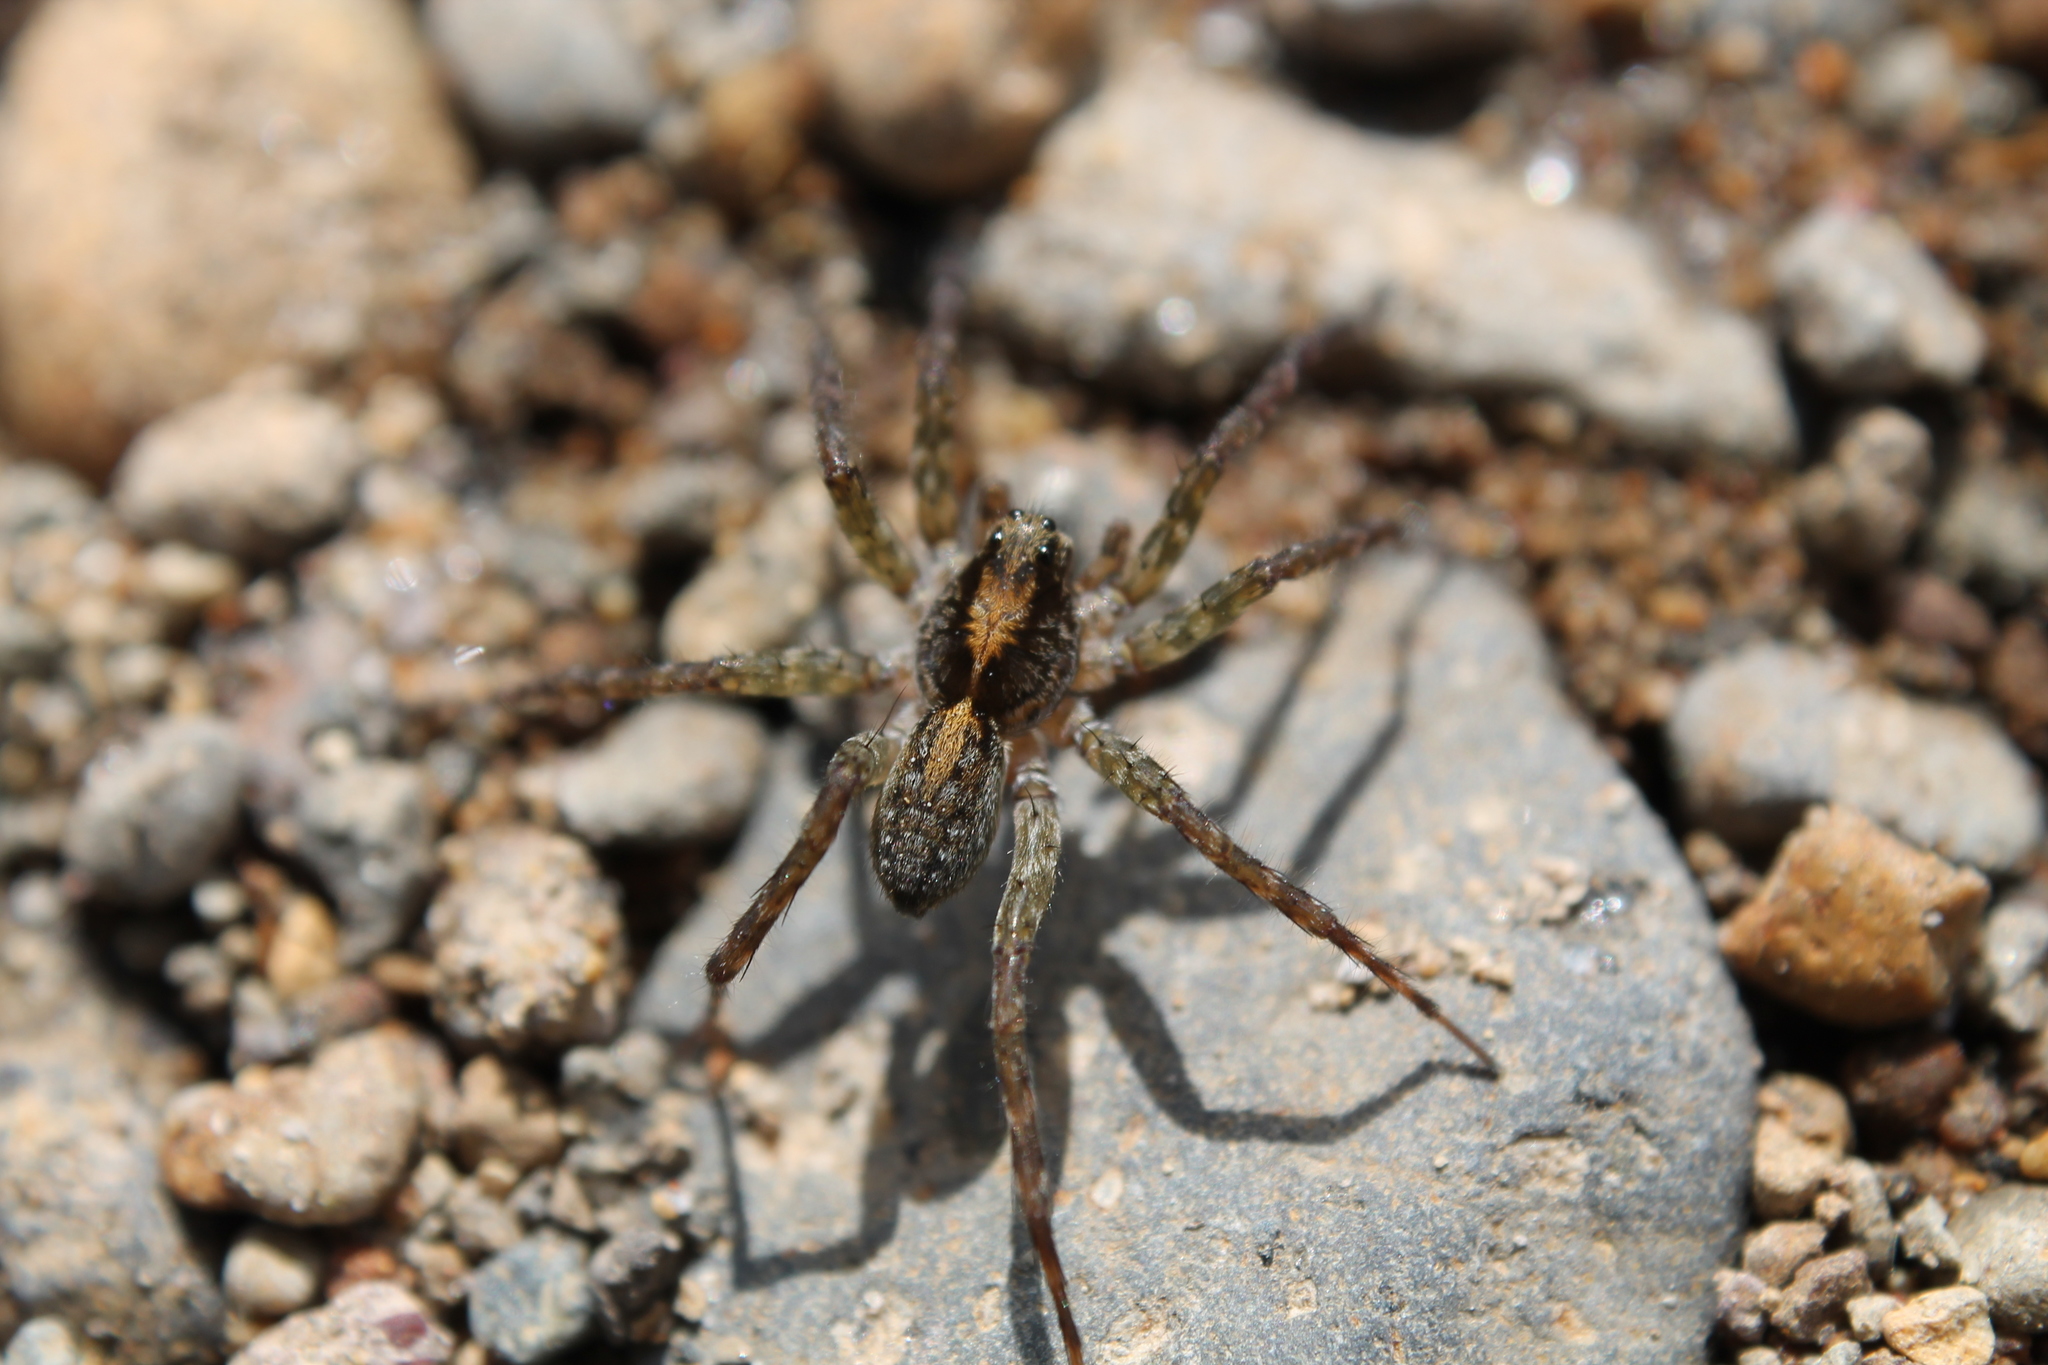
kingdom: Animalia
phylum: Arthropoda
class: Arachnida
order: Araneae
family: Lycosidae
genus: Anoteropsis
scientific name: Anoteropsis hilaris
